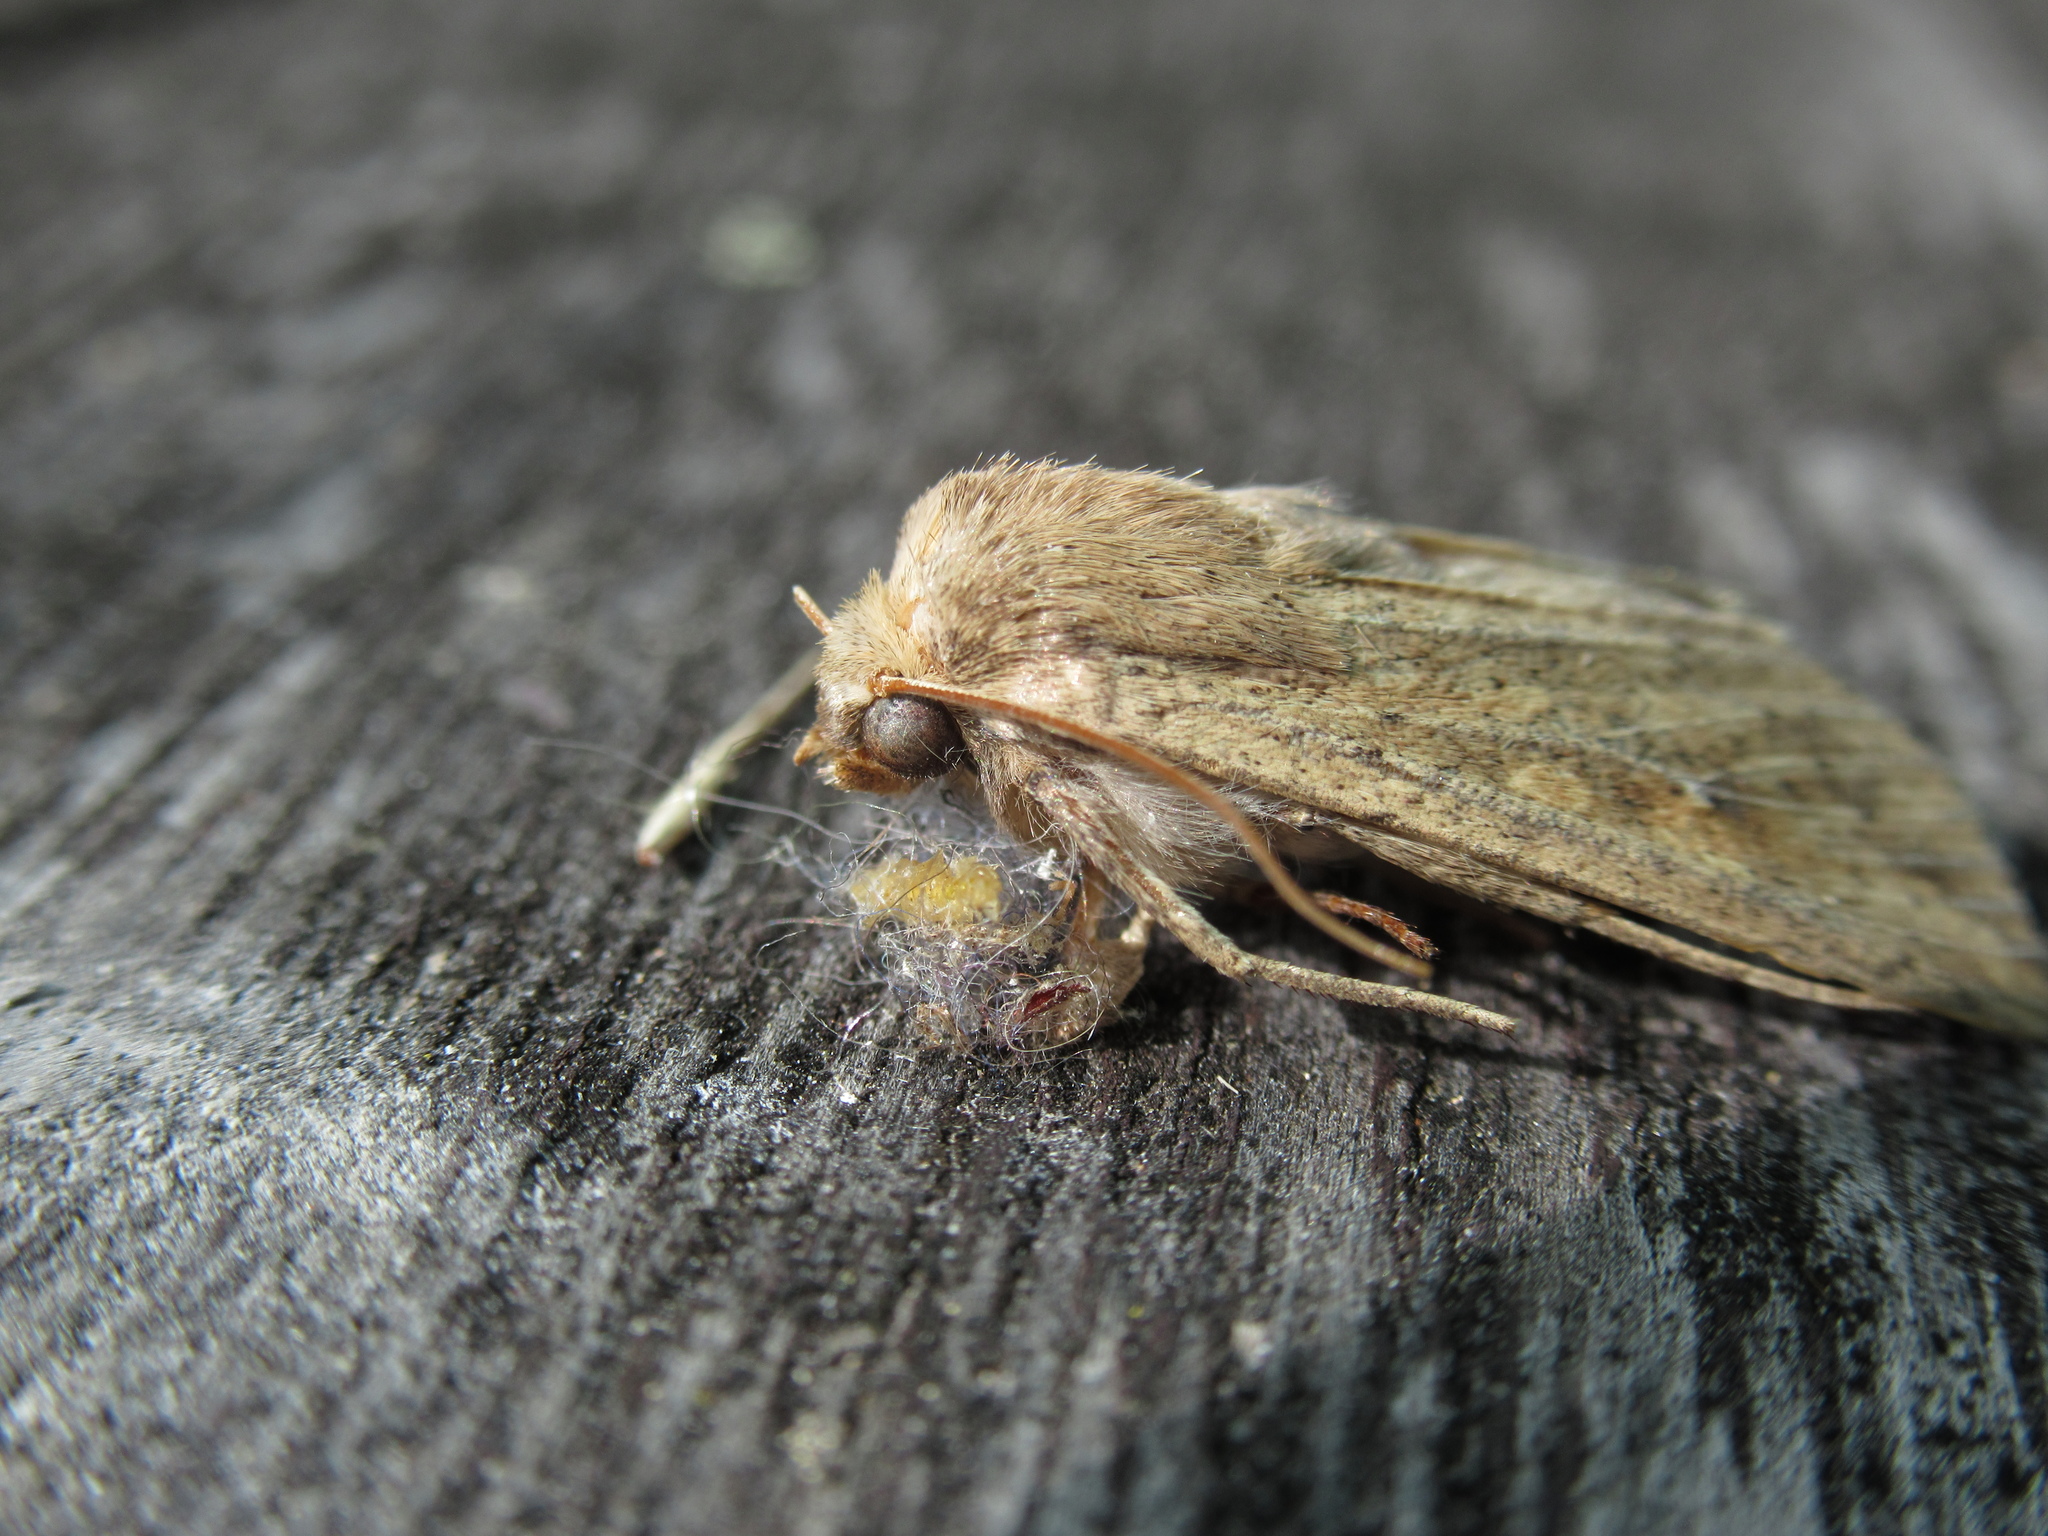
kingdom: Animalia
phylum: Arthropoda
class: Insecta
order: Lepidoptera
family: Noctuidae
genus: Mythimna
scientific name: Mythimna separata
